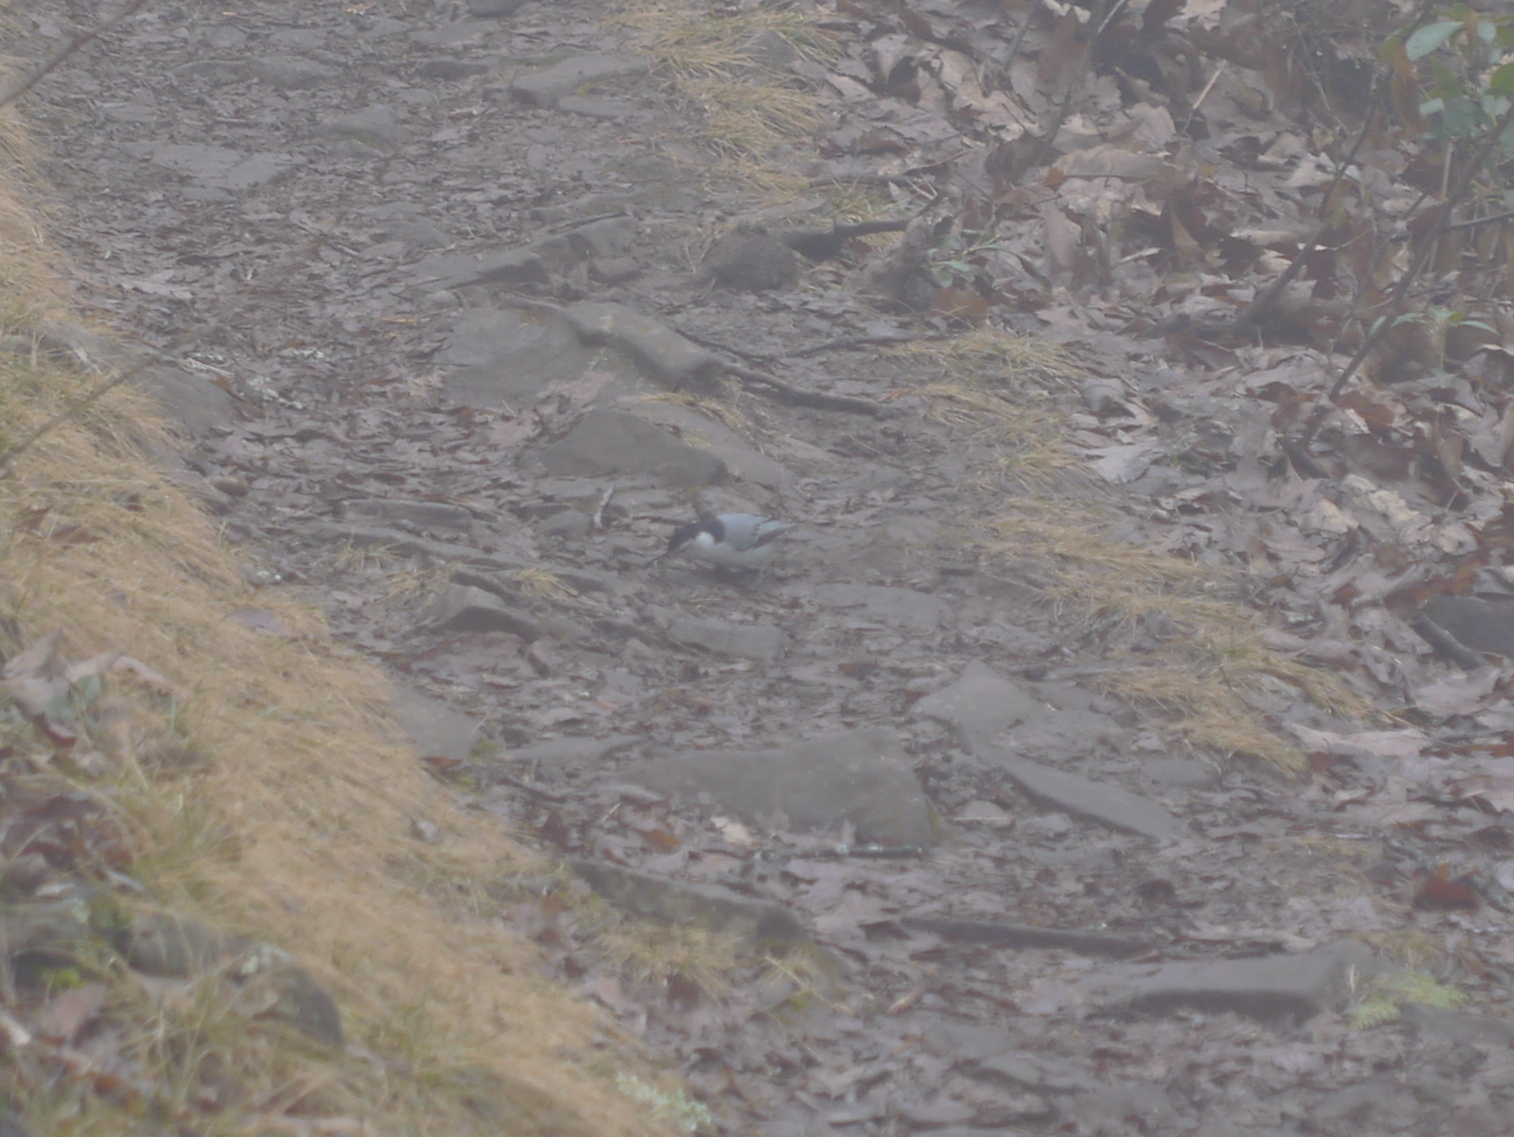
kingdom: Animalia
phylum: Chordata
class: Aves
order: Passeriformes
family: Sittidae
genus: Sitta
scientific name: Sitta carolinensis
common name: White-breasted nuthatch
